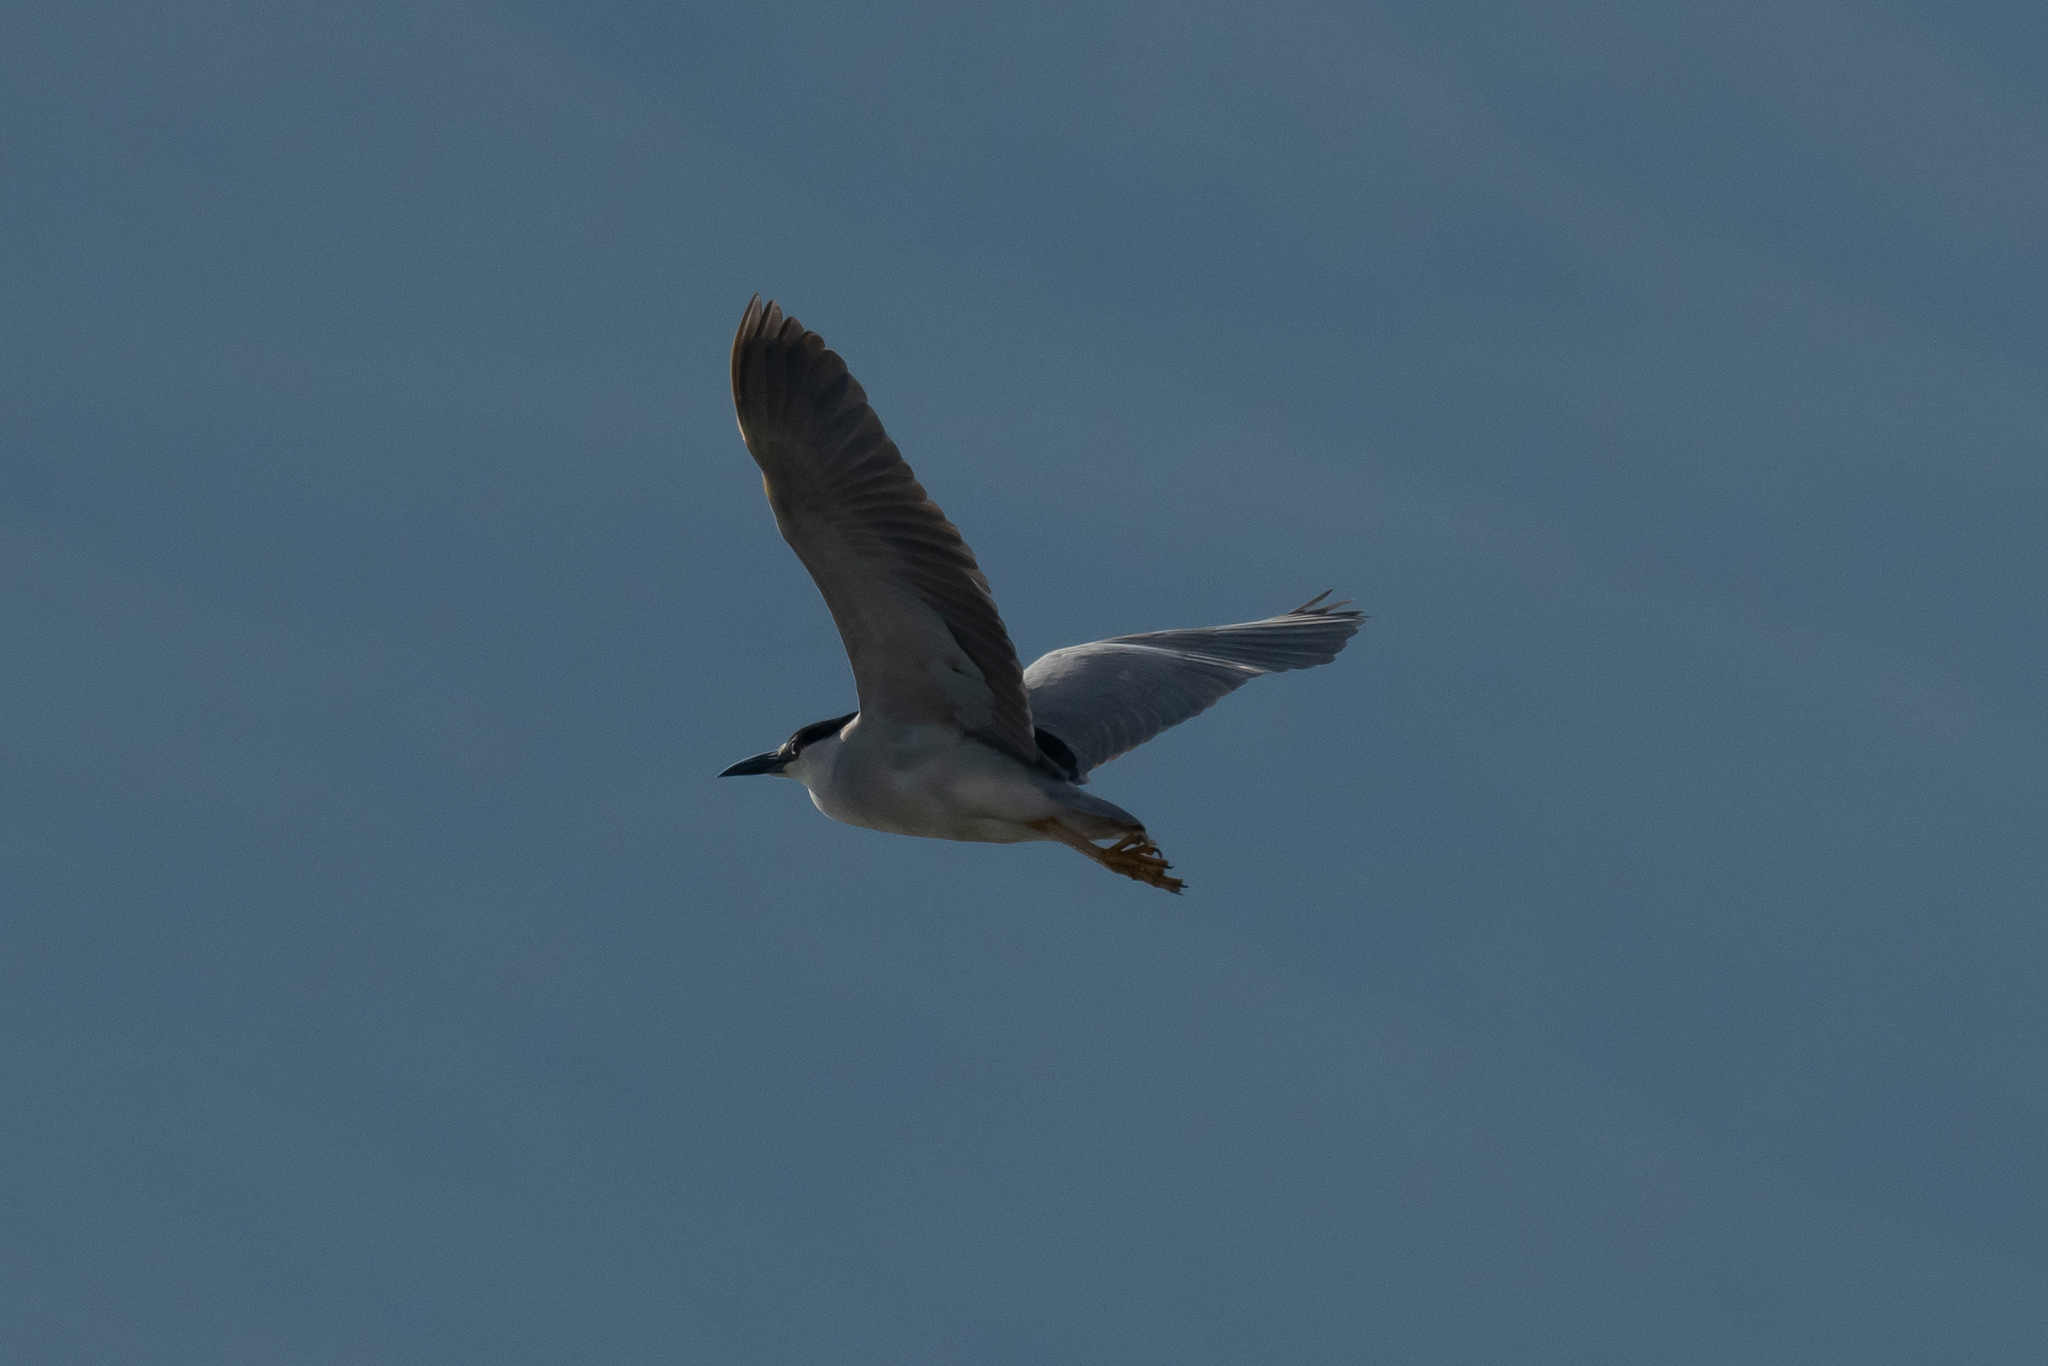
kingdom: Animalia
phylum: Chordata
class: Aves
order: Pelecaniformes
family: Ardeidae
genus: Nycticorax
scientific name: Nycticorax nycticorax
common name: Black-crowned night heron
